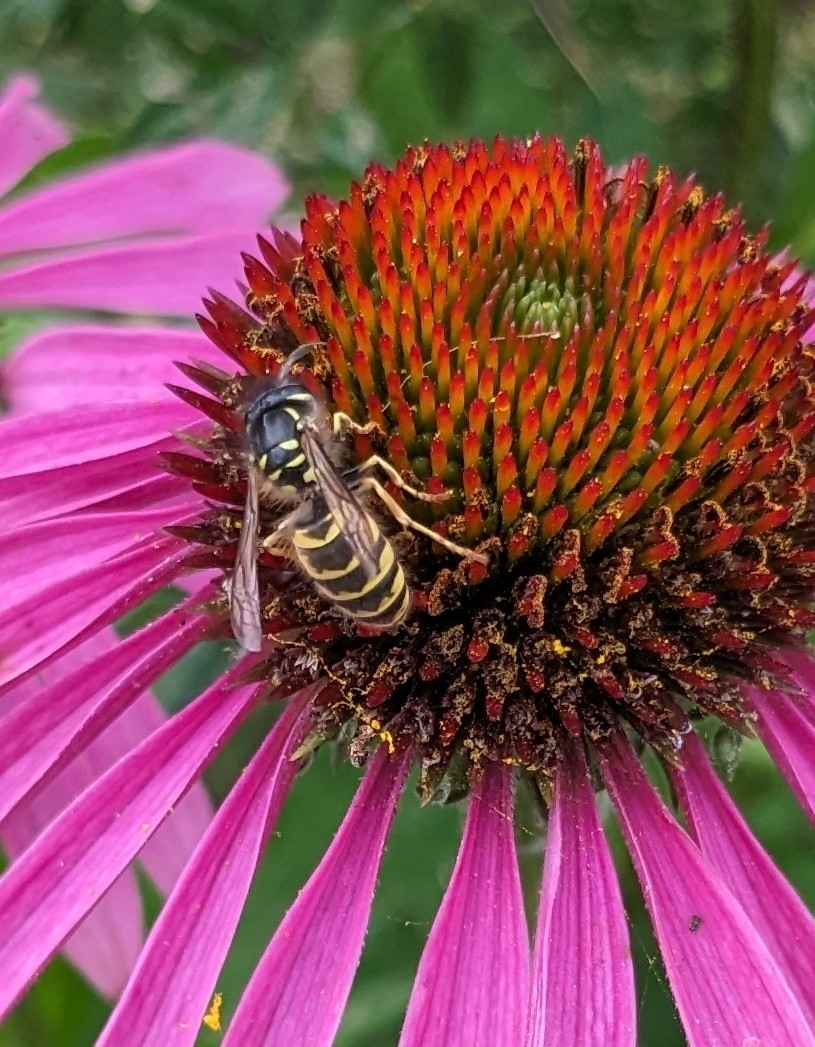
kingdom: Animalia
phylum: Arthropoda
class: Insecta
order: Hymenoptera
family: Vespidae
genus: Vespula
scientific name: Vespula vulgaris
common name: Common wasp
